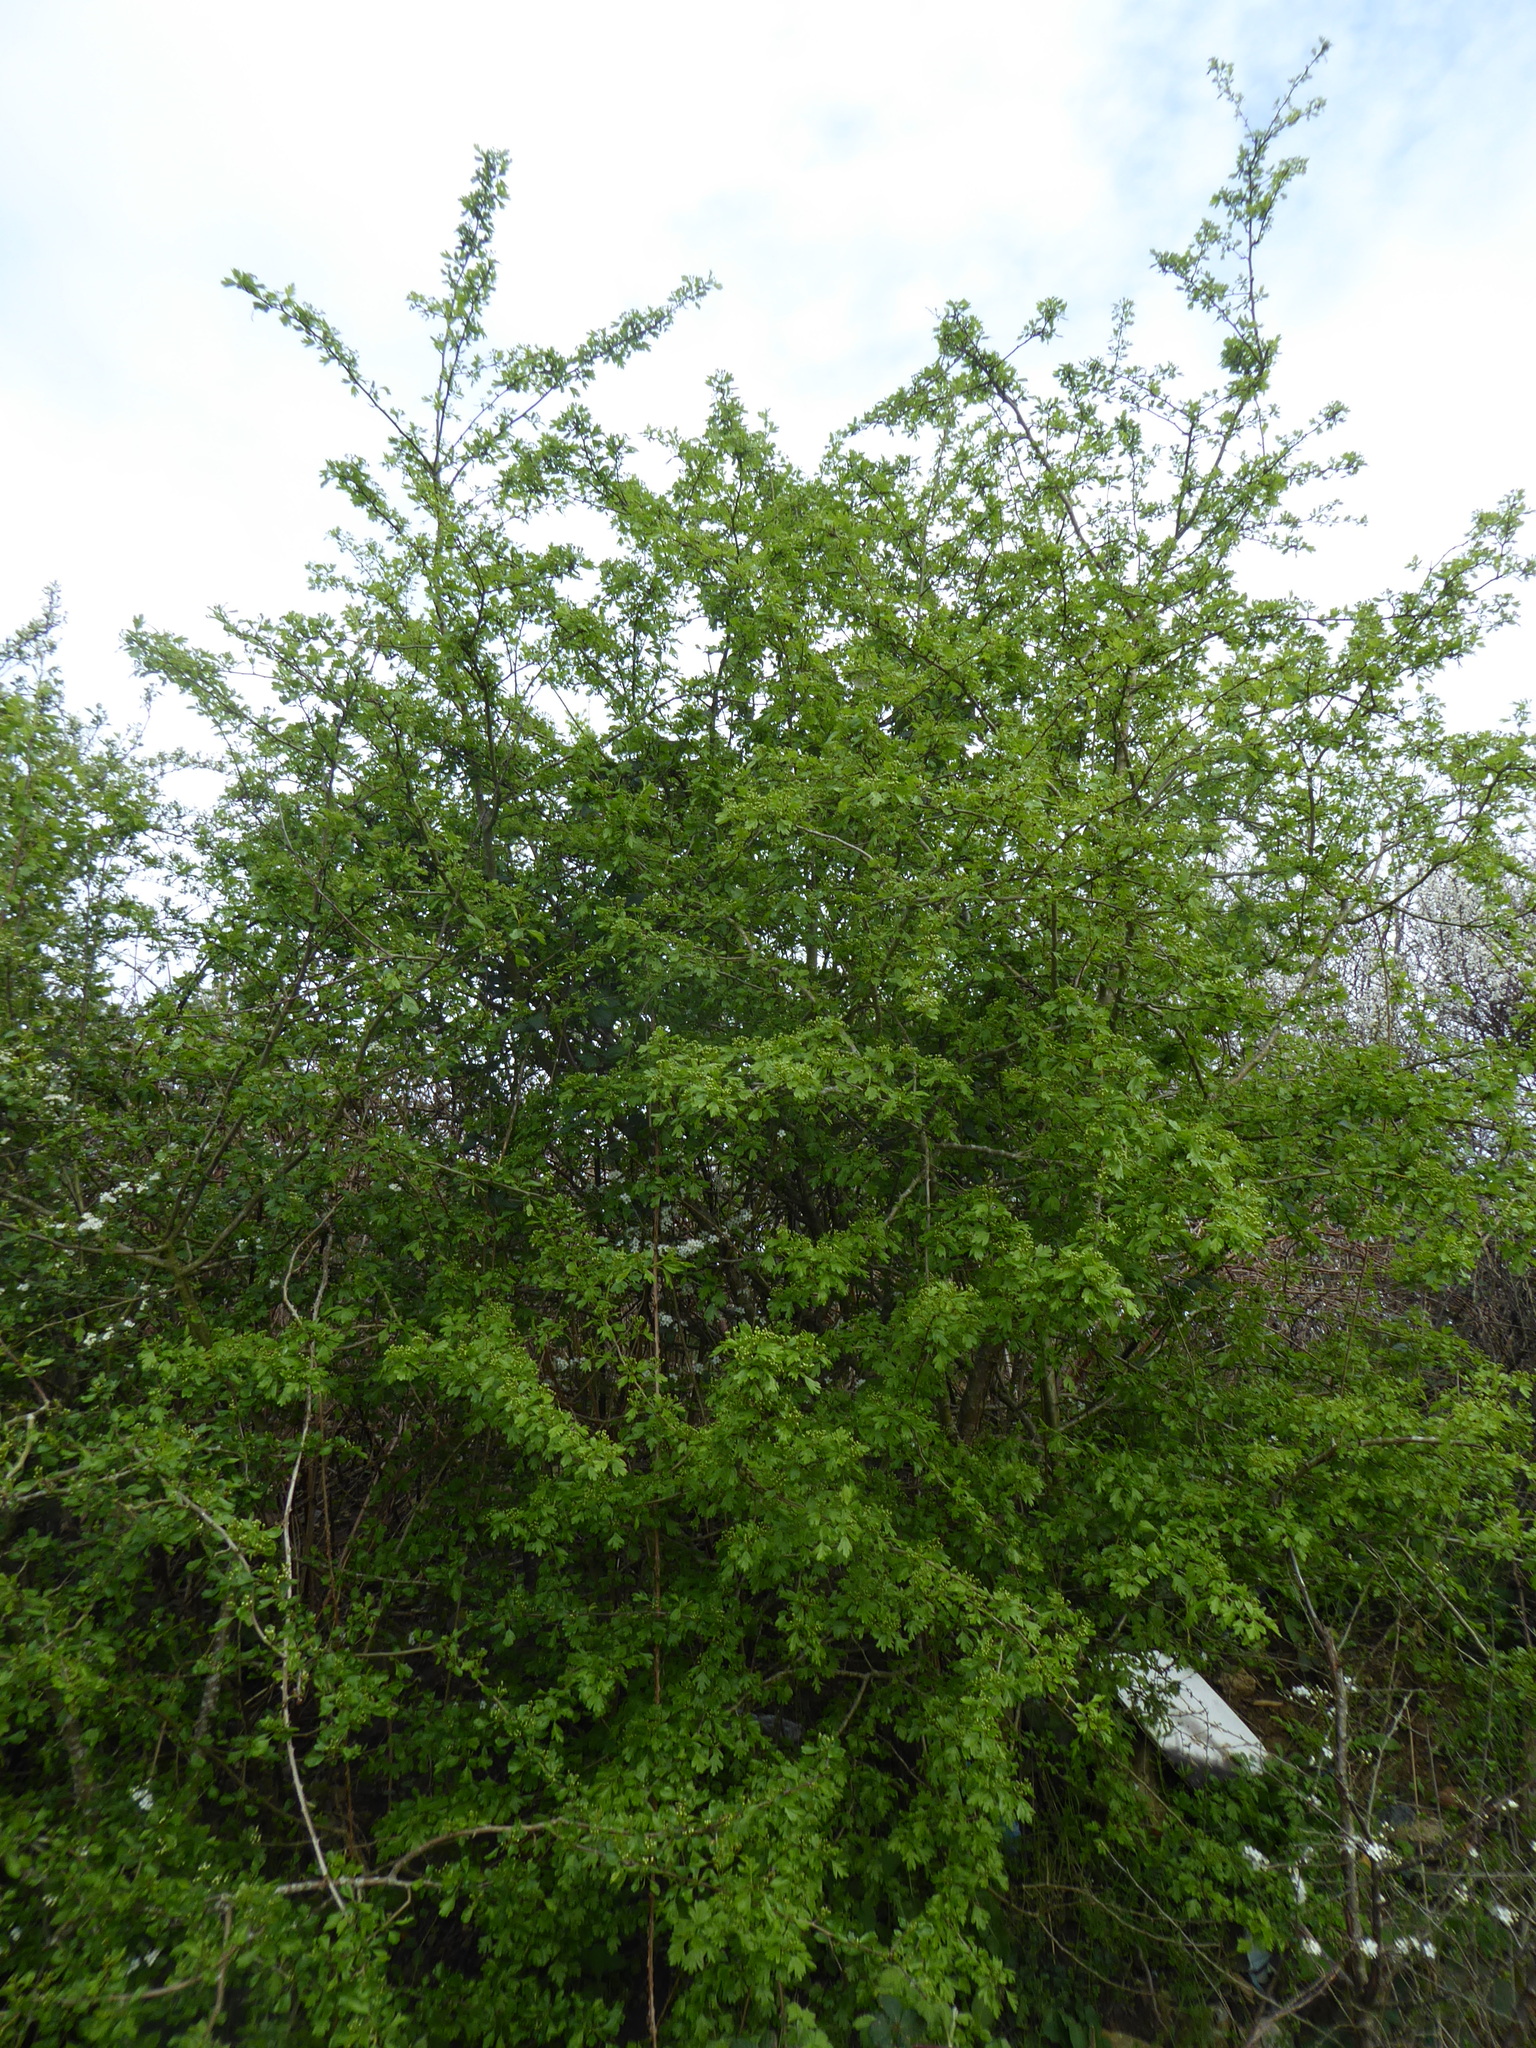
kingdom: Plantae
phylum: Tracheophyta
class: Magnoliopsida
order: Rosales
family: Rosaceae
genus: Crataegus
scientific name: Crataegus laevigata
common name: Midland hawthorn
